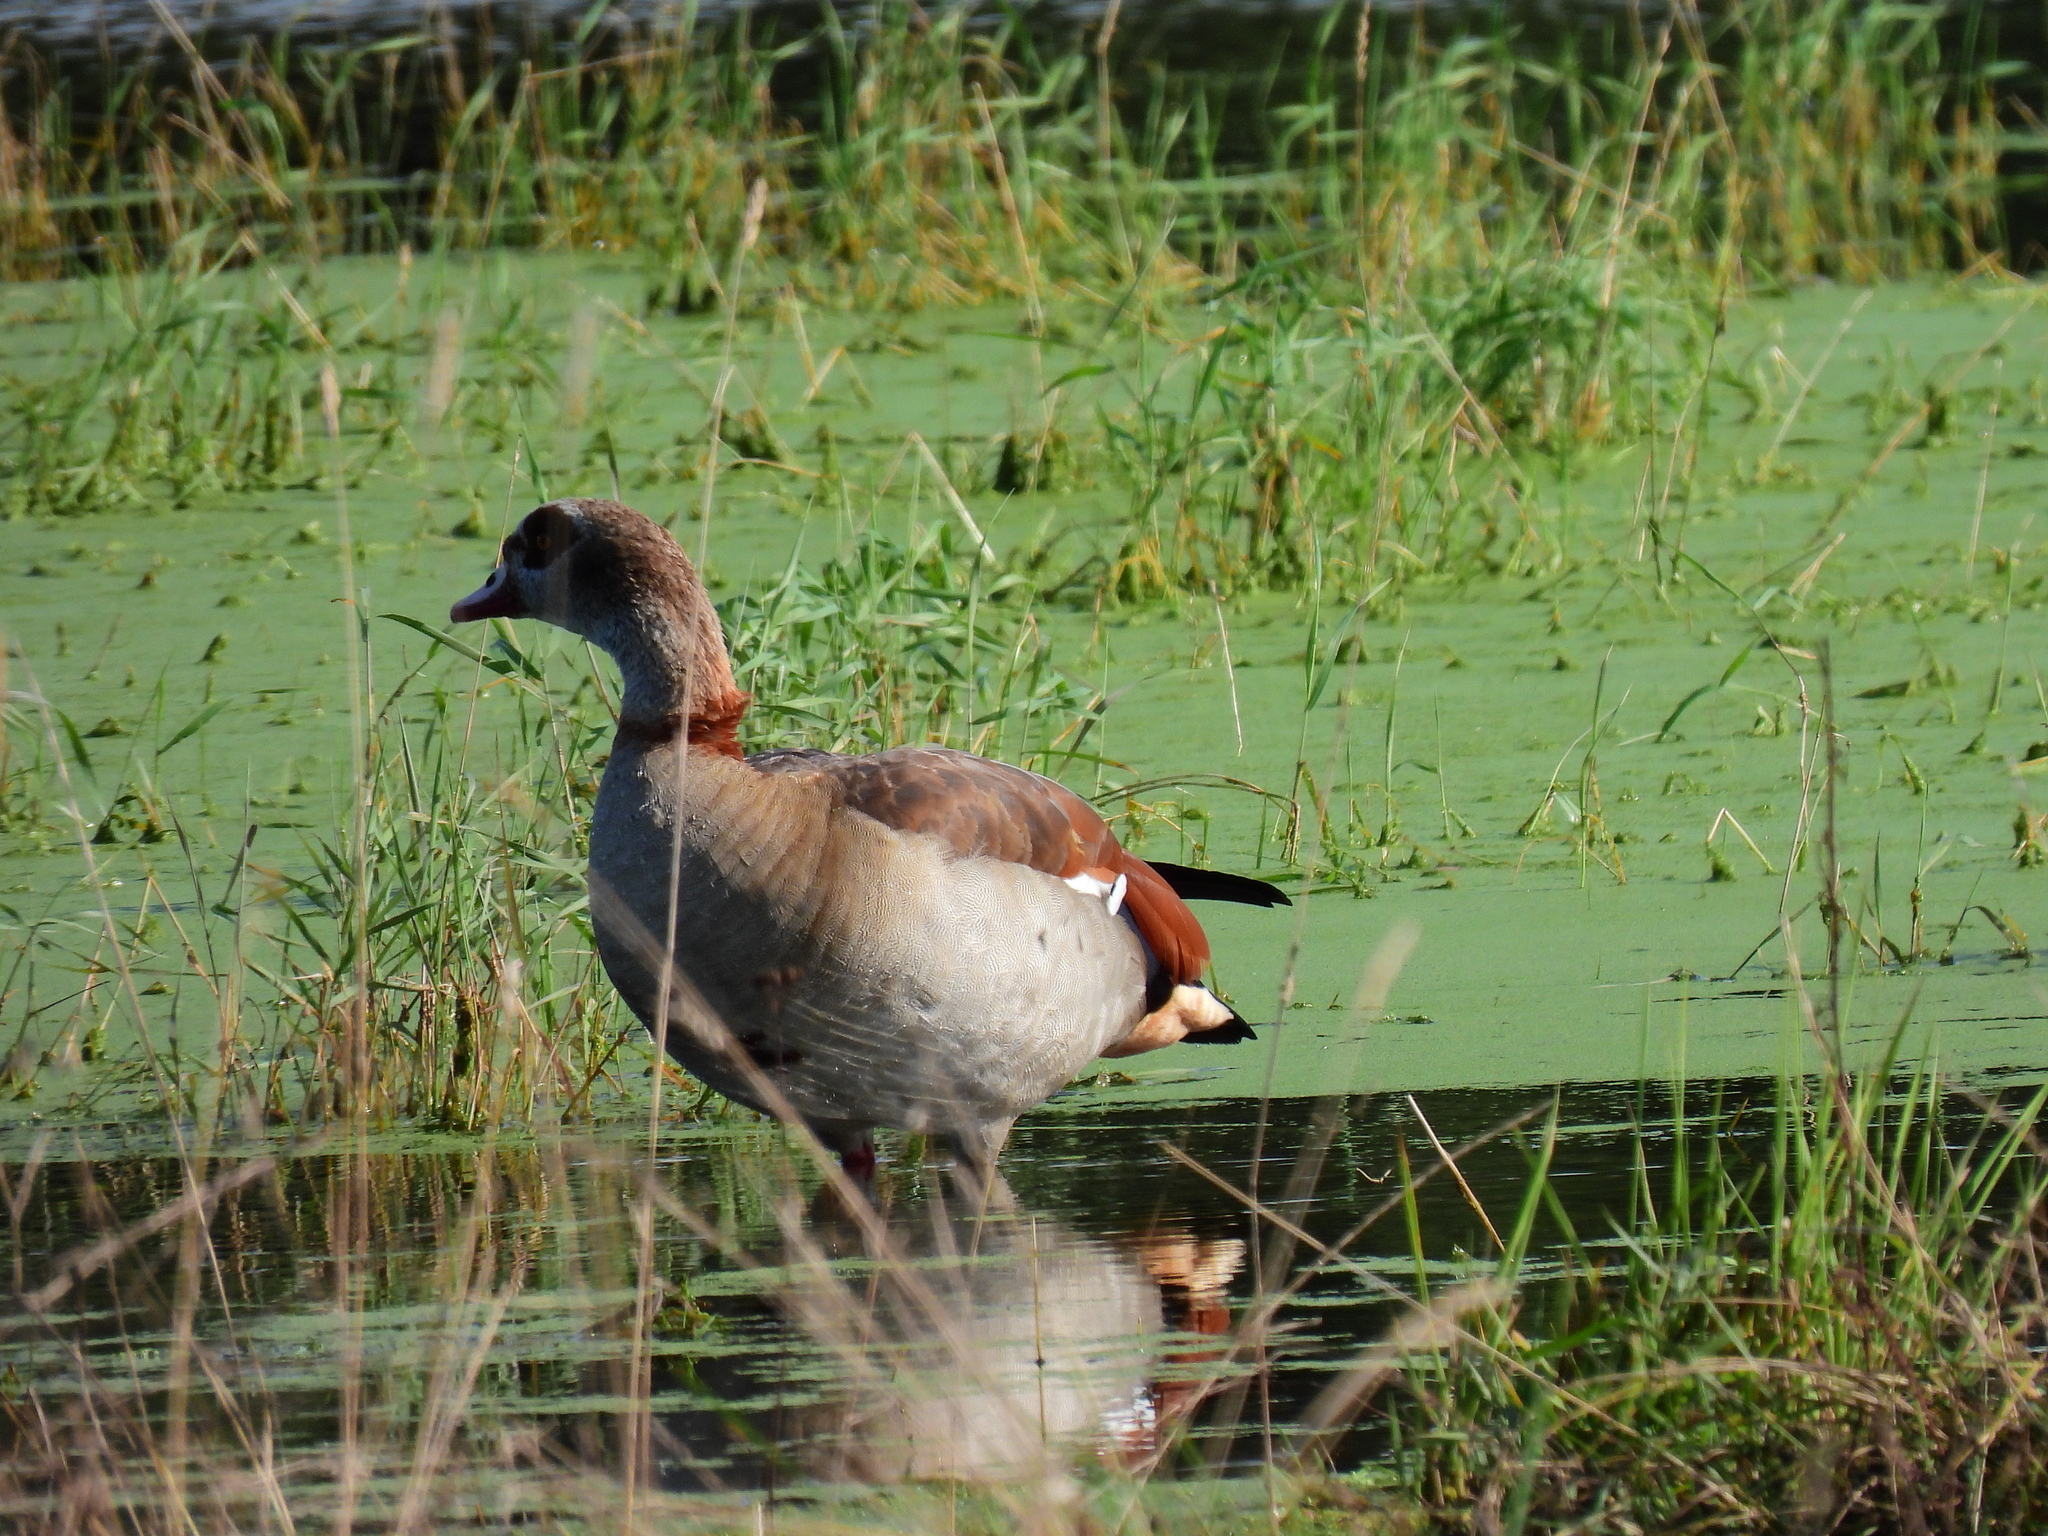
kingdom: Animalia
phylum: Chordata
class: Aves
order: Anseriformes
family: Anatidae
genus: Alopochen
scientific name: Alopochen aegyptiaca
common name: Egyptian goose
